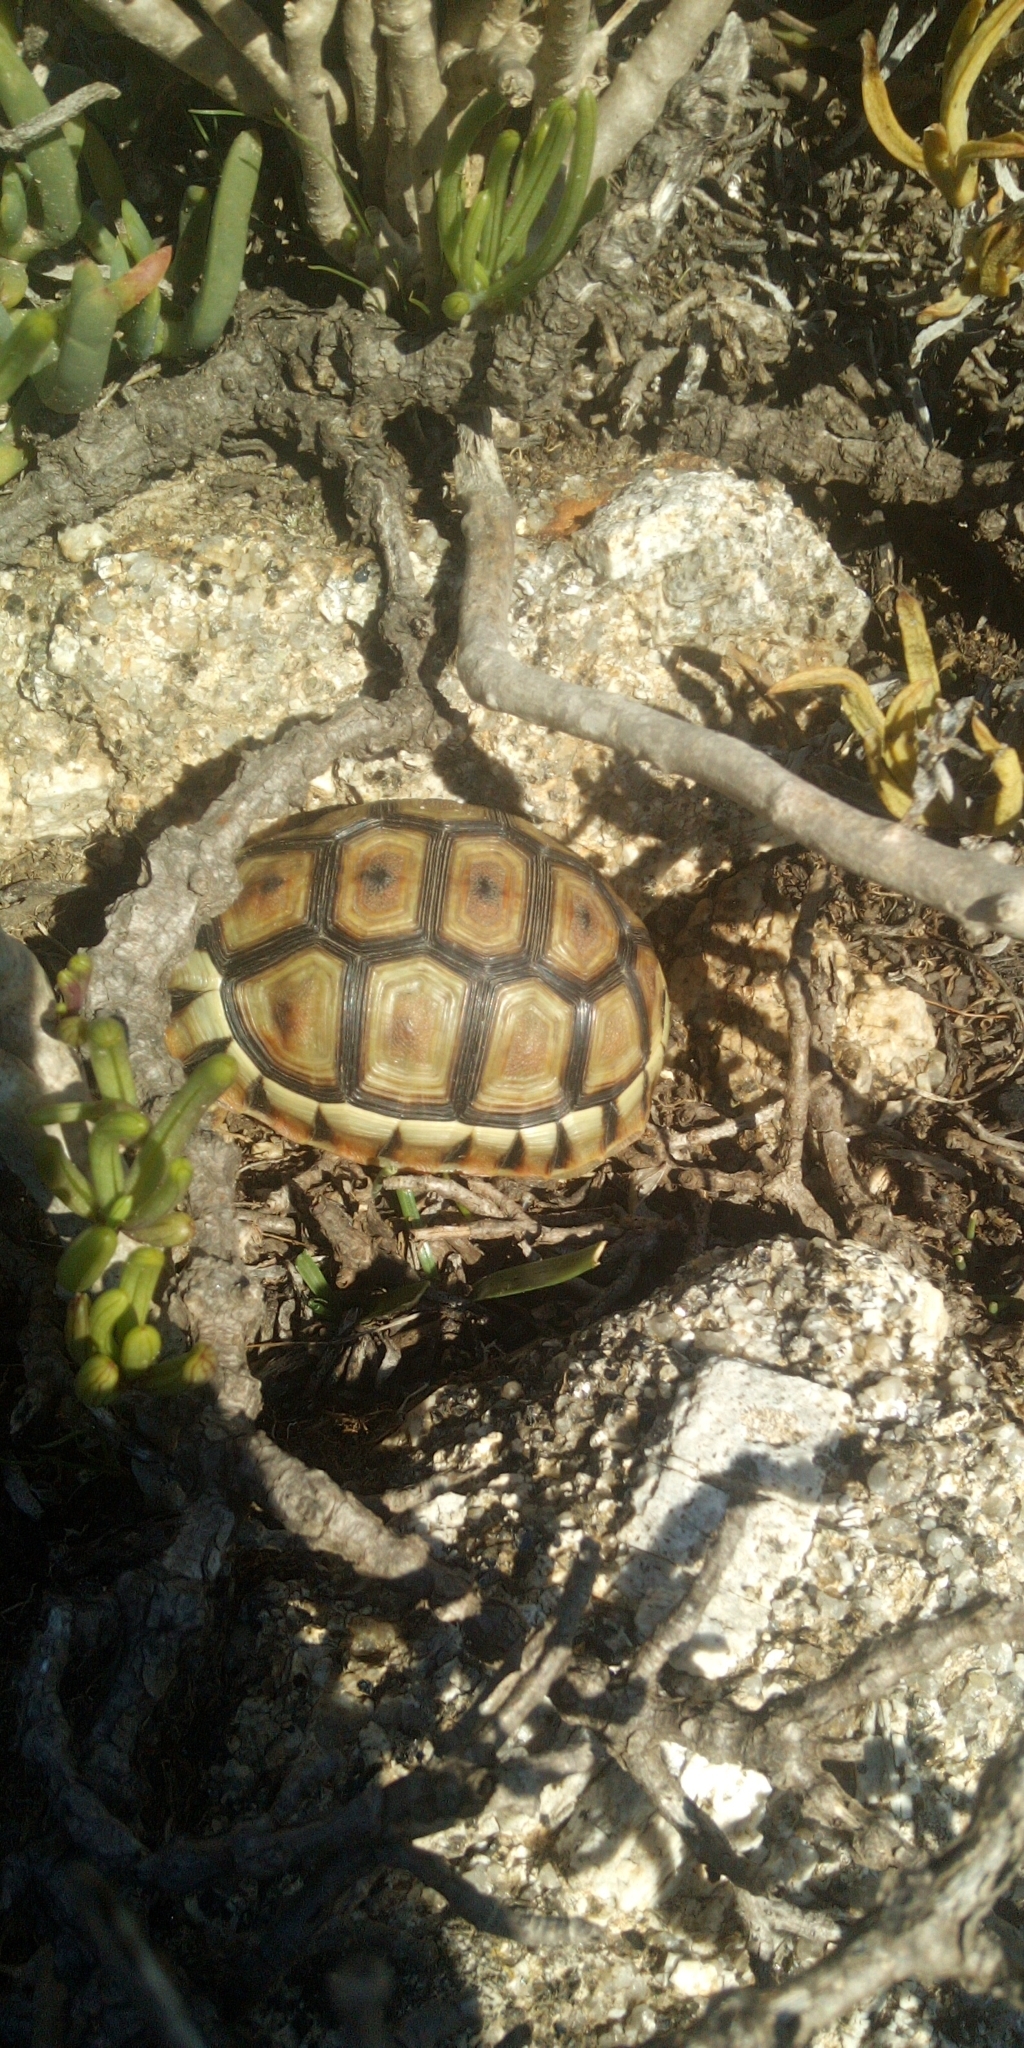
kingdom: Animalia
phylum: Chordata
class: Testudines
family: Testudinidae
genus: Chersina
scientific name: Chersina angulata
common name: South african bowsprit tortoise
